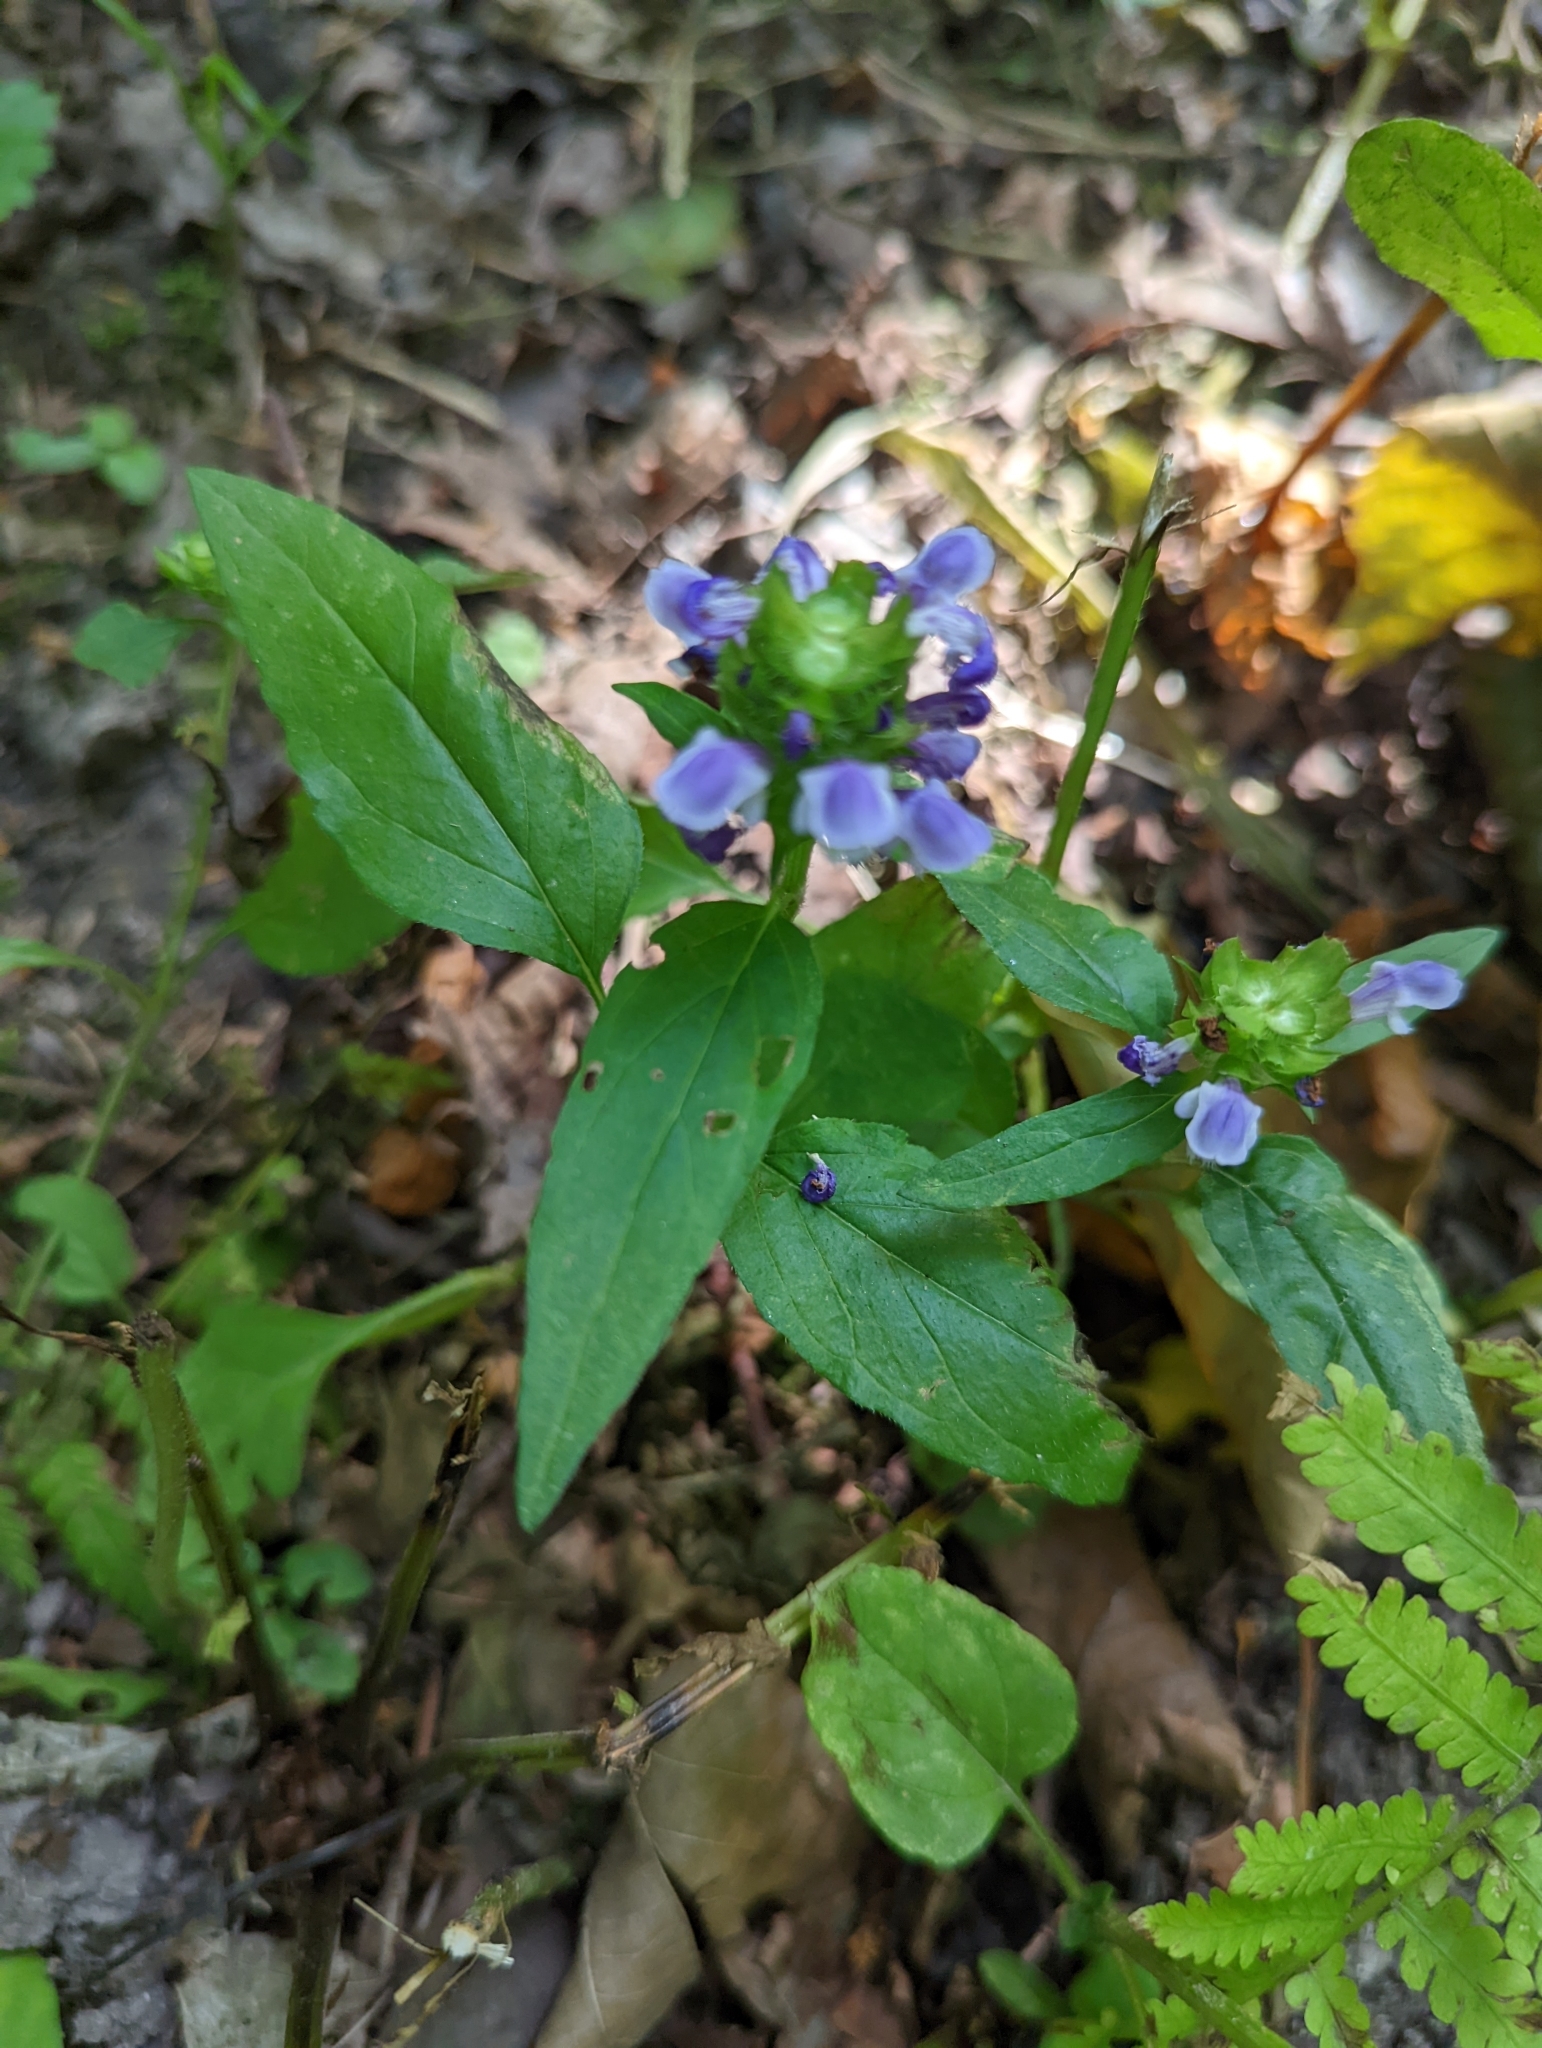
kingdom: Plantae
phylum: Tracheophyta
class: Magnoliopsida
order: Lamiales
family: Lamiaceae
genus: Prunella
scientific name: Prunella vulgaris
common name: Heal-all
